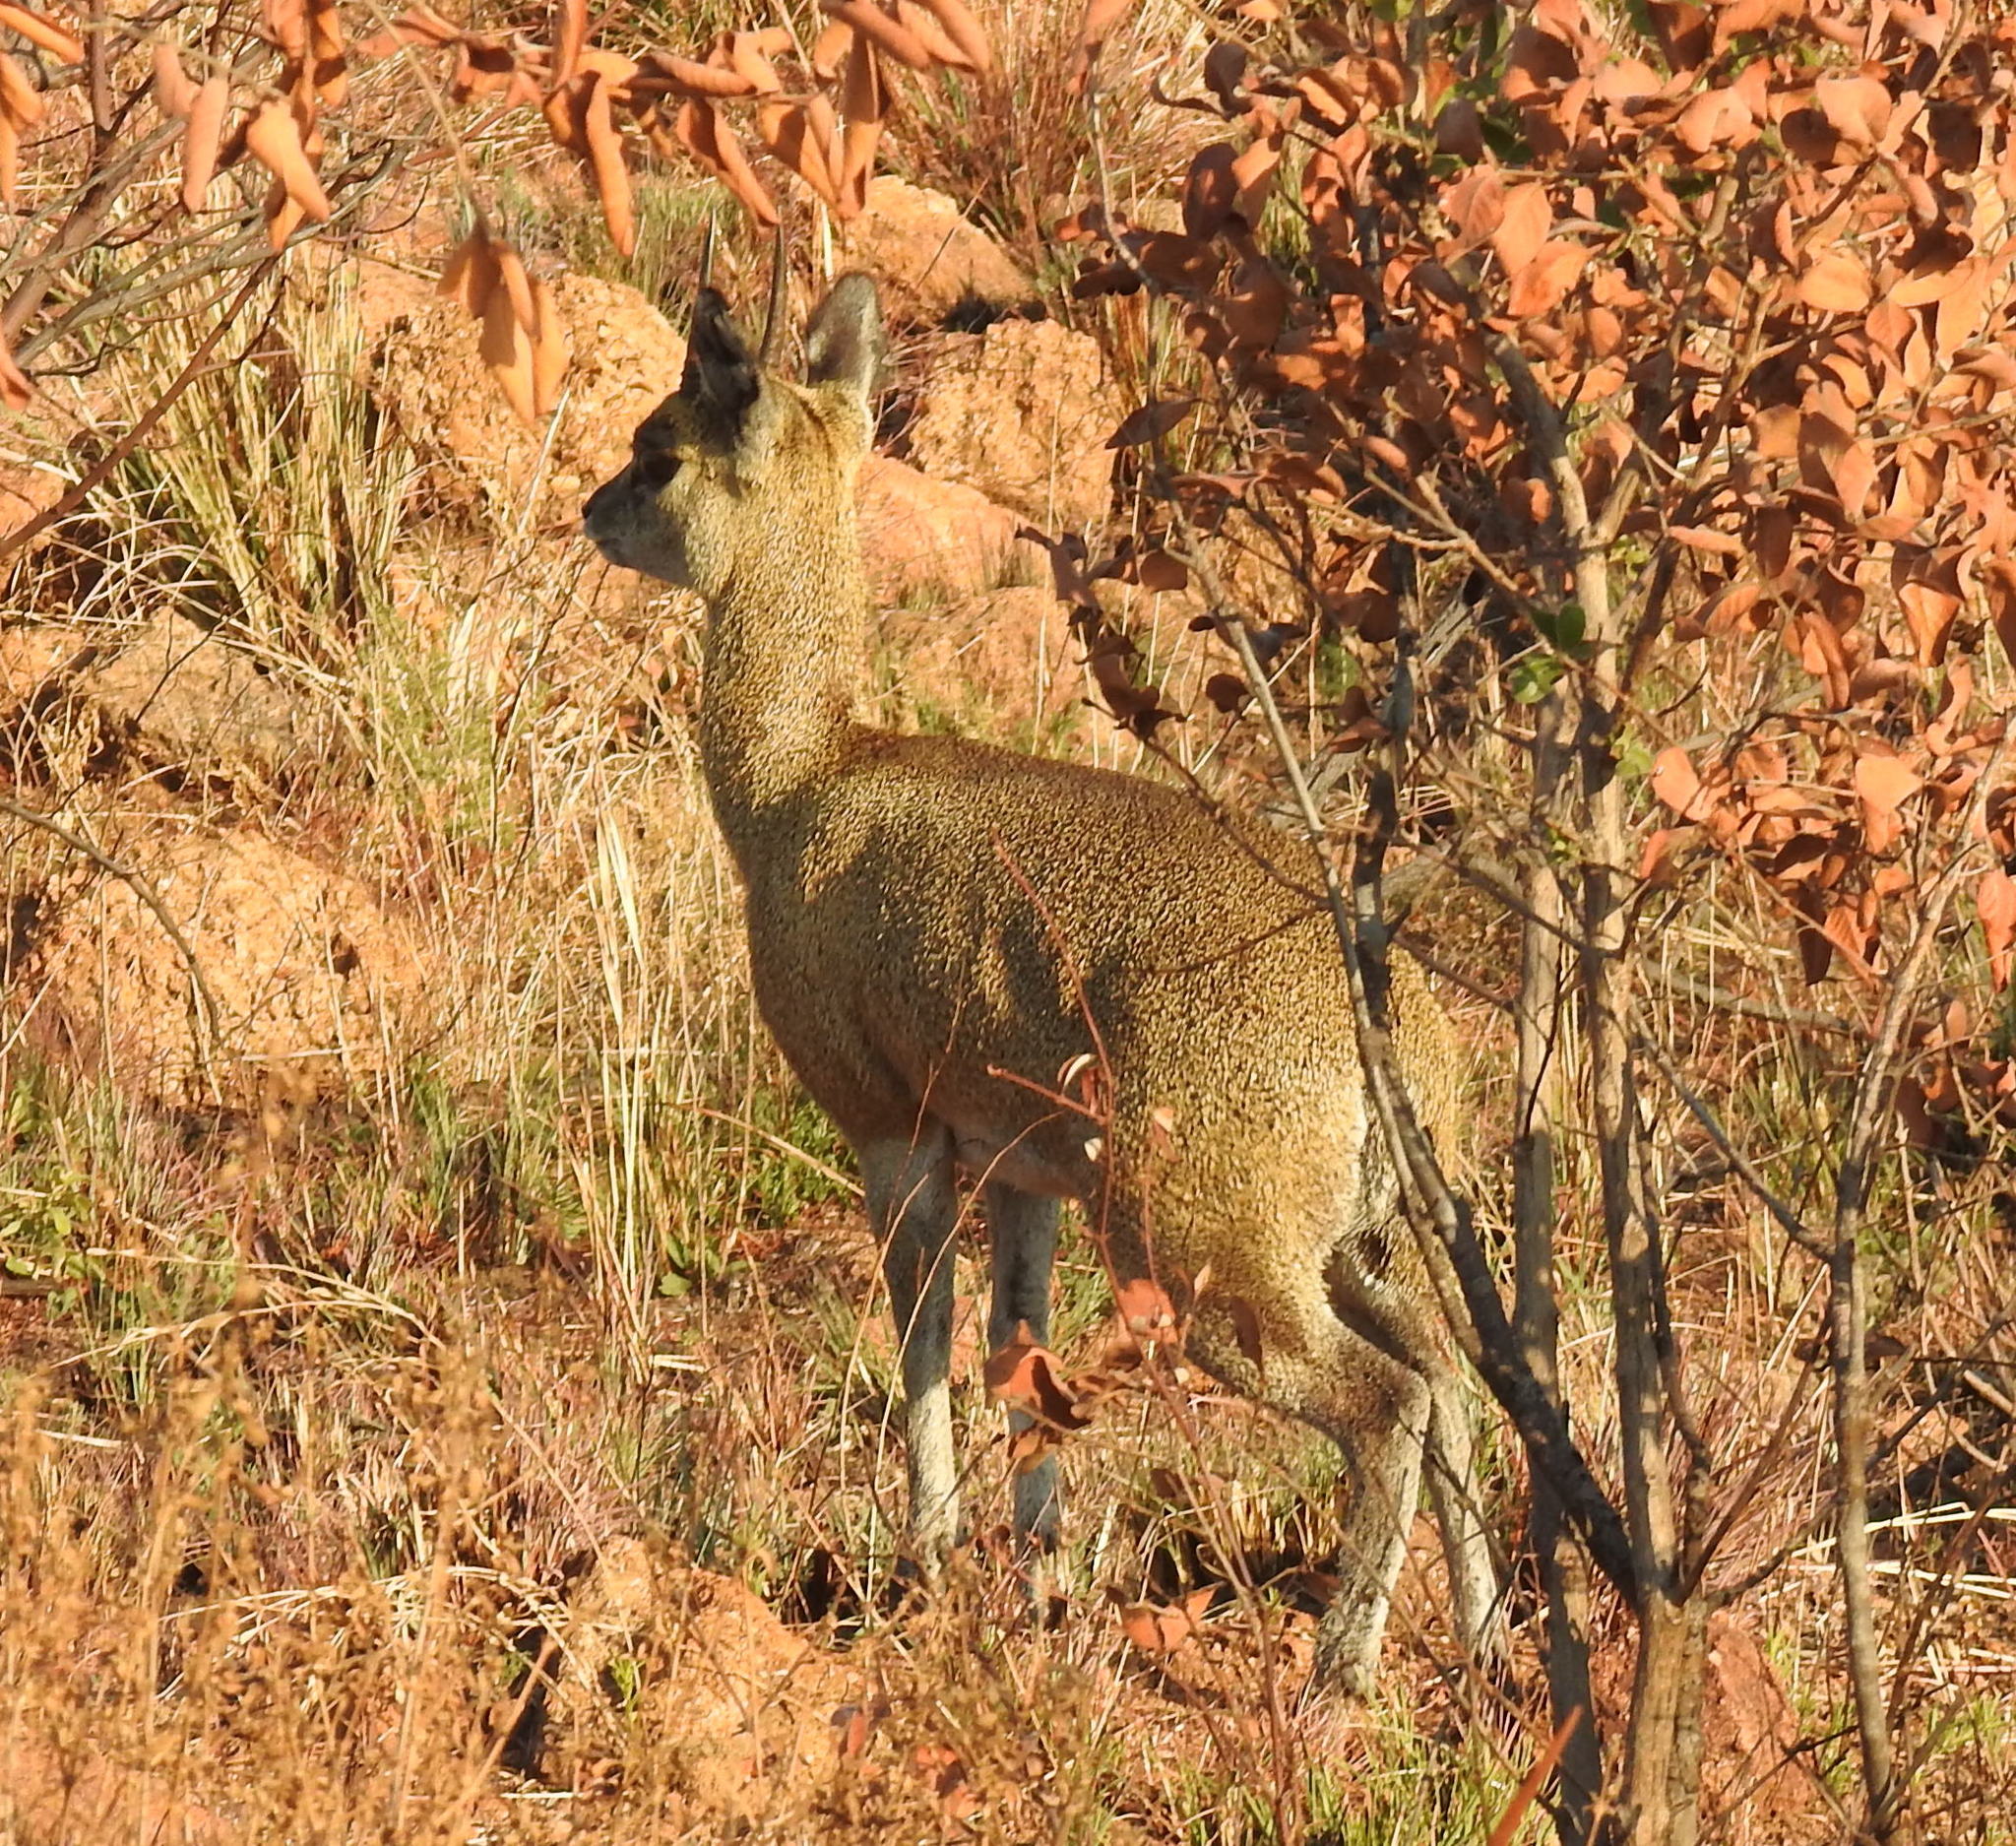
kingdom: Animalia
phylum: Chordata
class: Mammalia
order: Artiodactyla
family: Bovidae
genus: Oreotragus
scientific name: Oreotragus oreotragus
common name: Klipspringer
